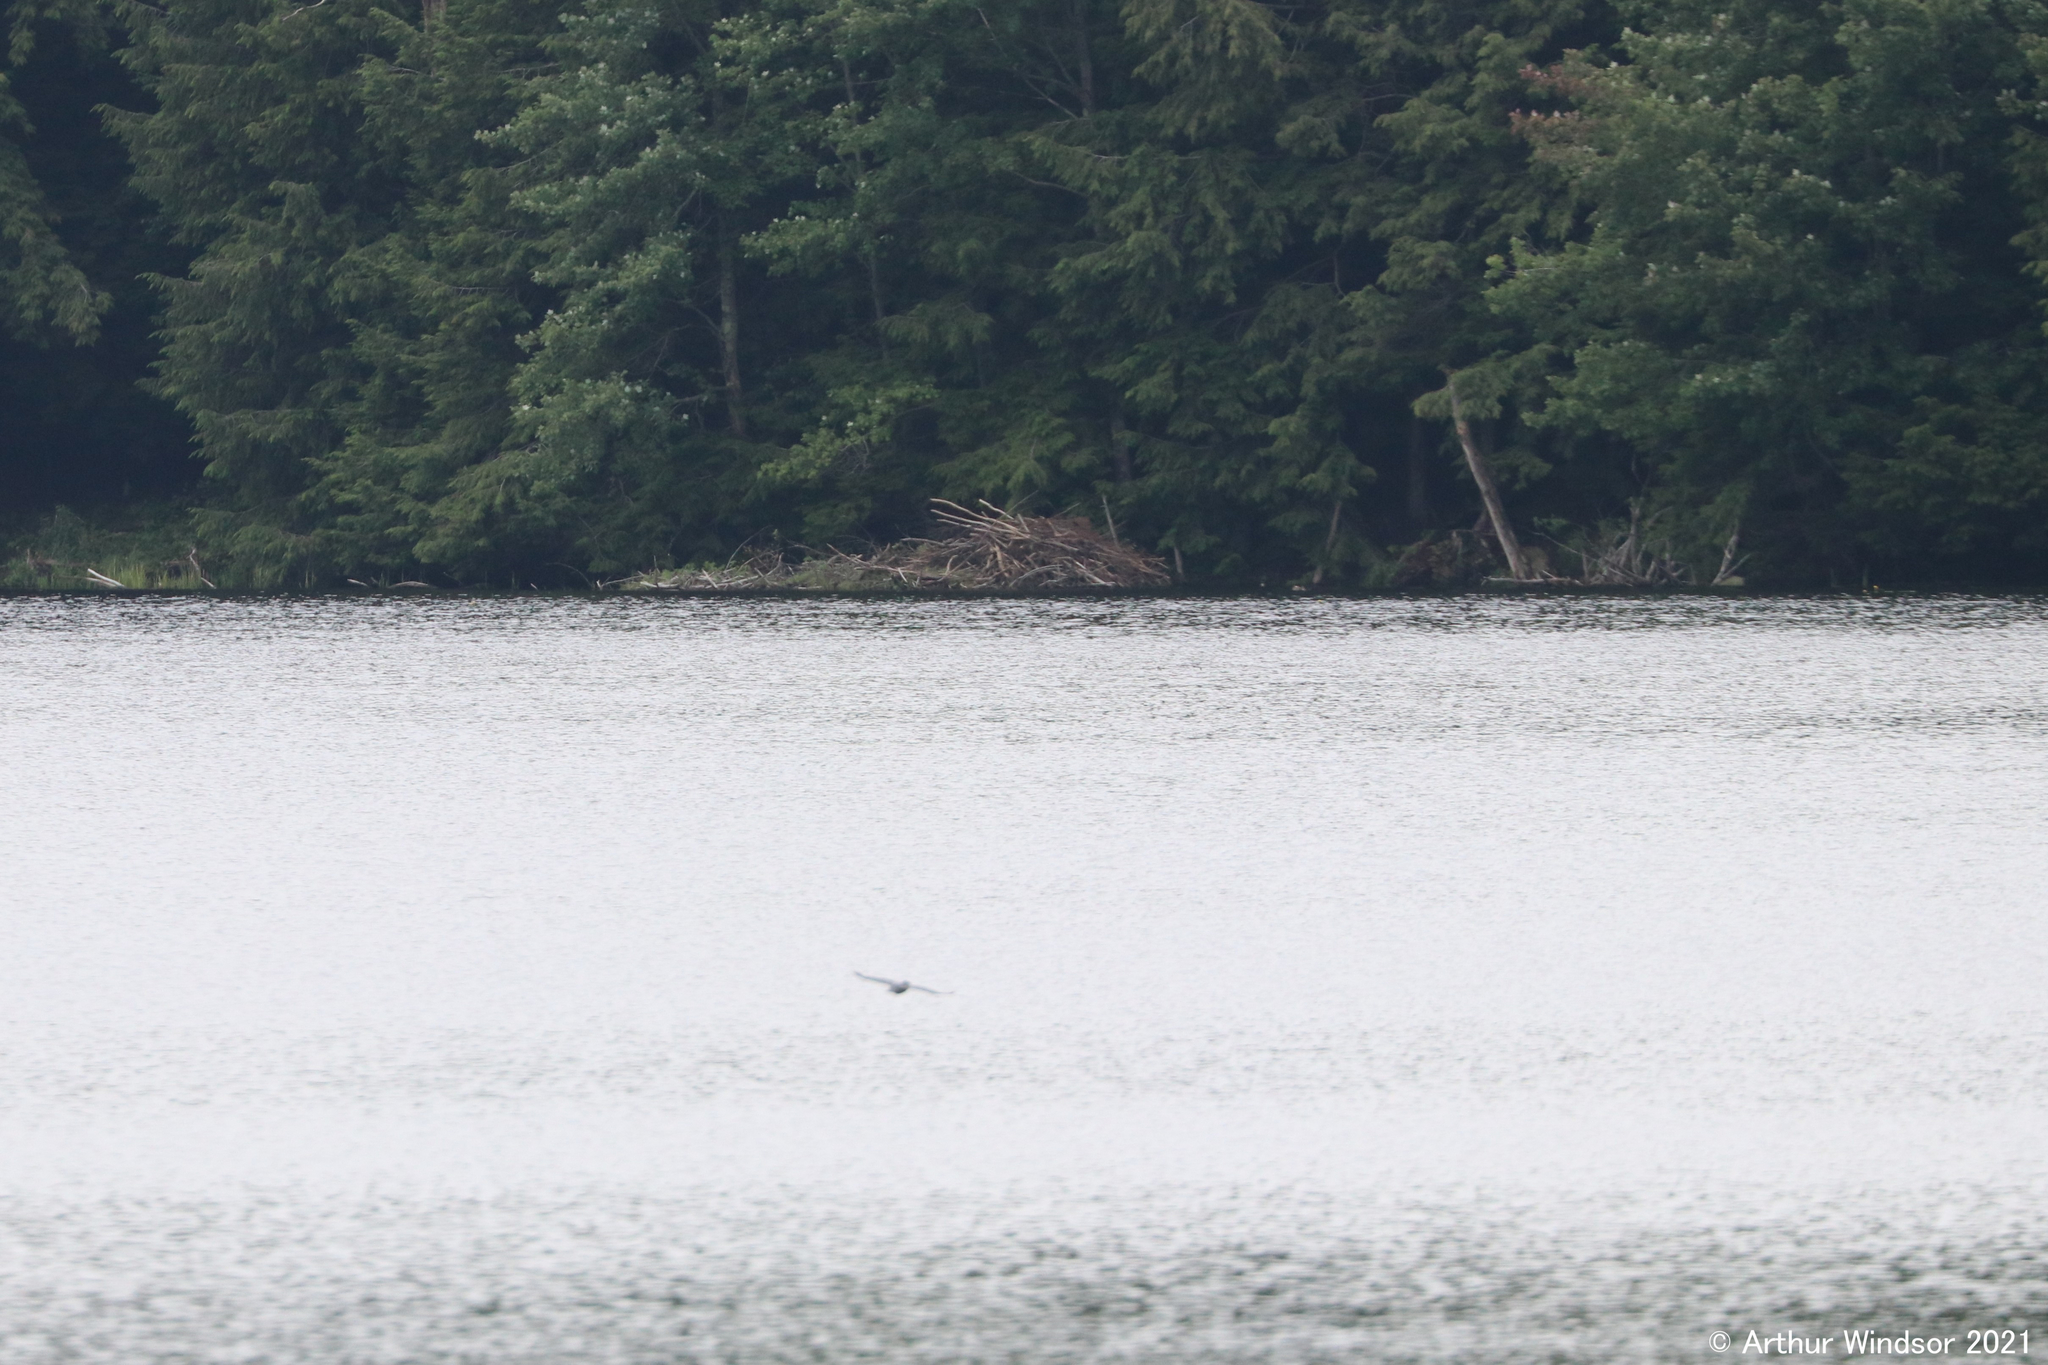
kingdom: Animalia
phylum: Chordata
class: Mammalia
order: Rodentia
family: Castoridae
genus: Castor
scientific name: Castor canadensis
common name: American beaver
